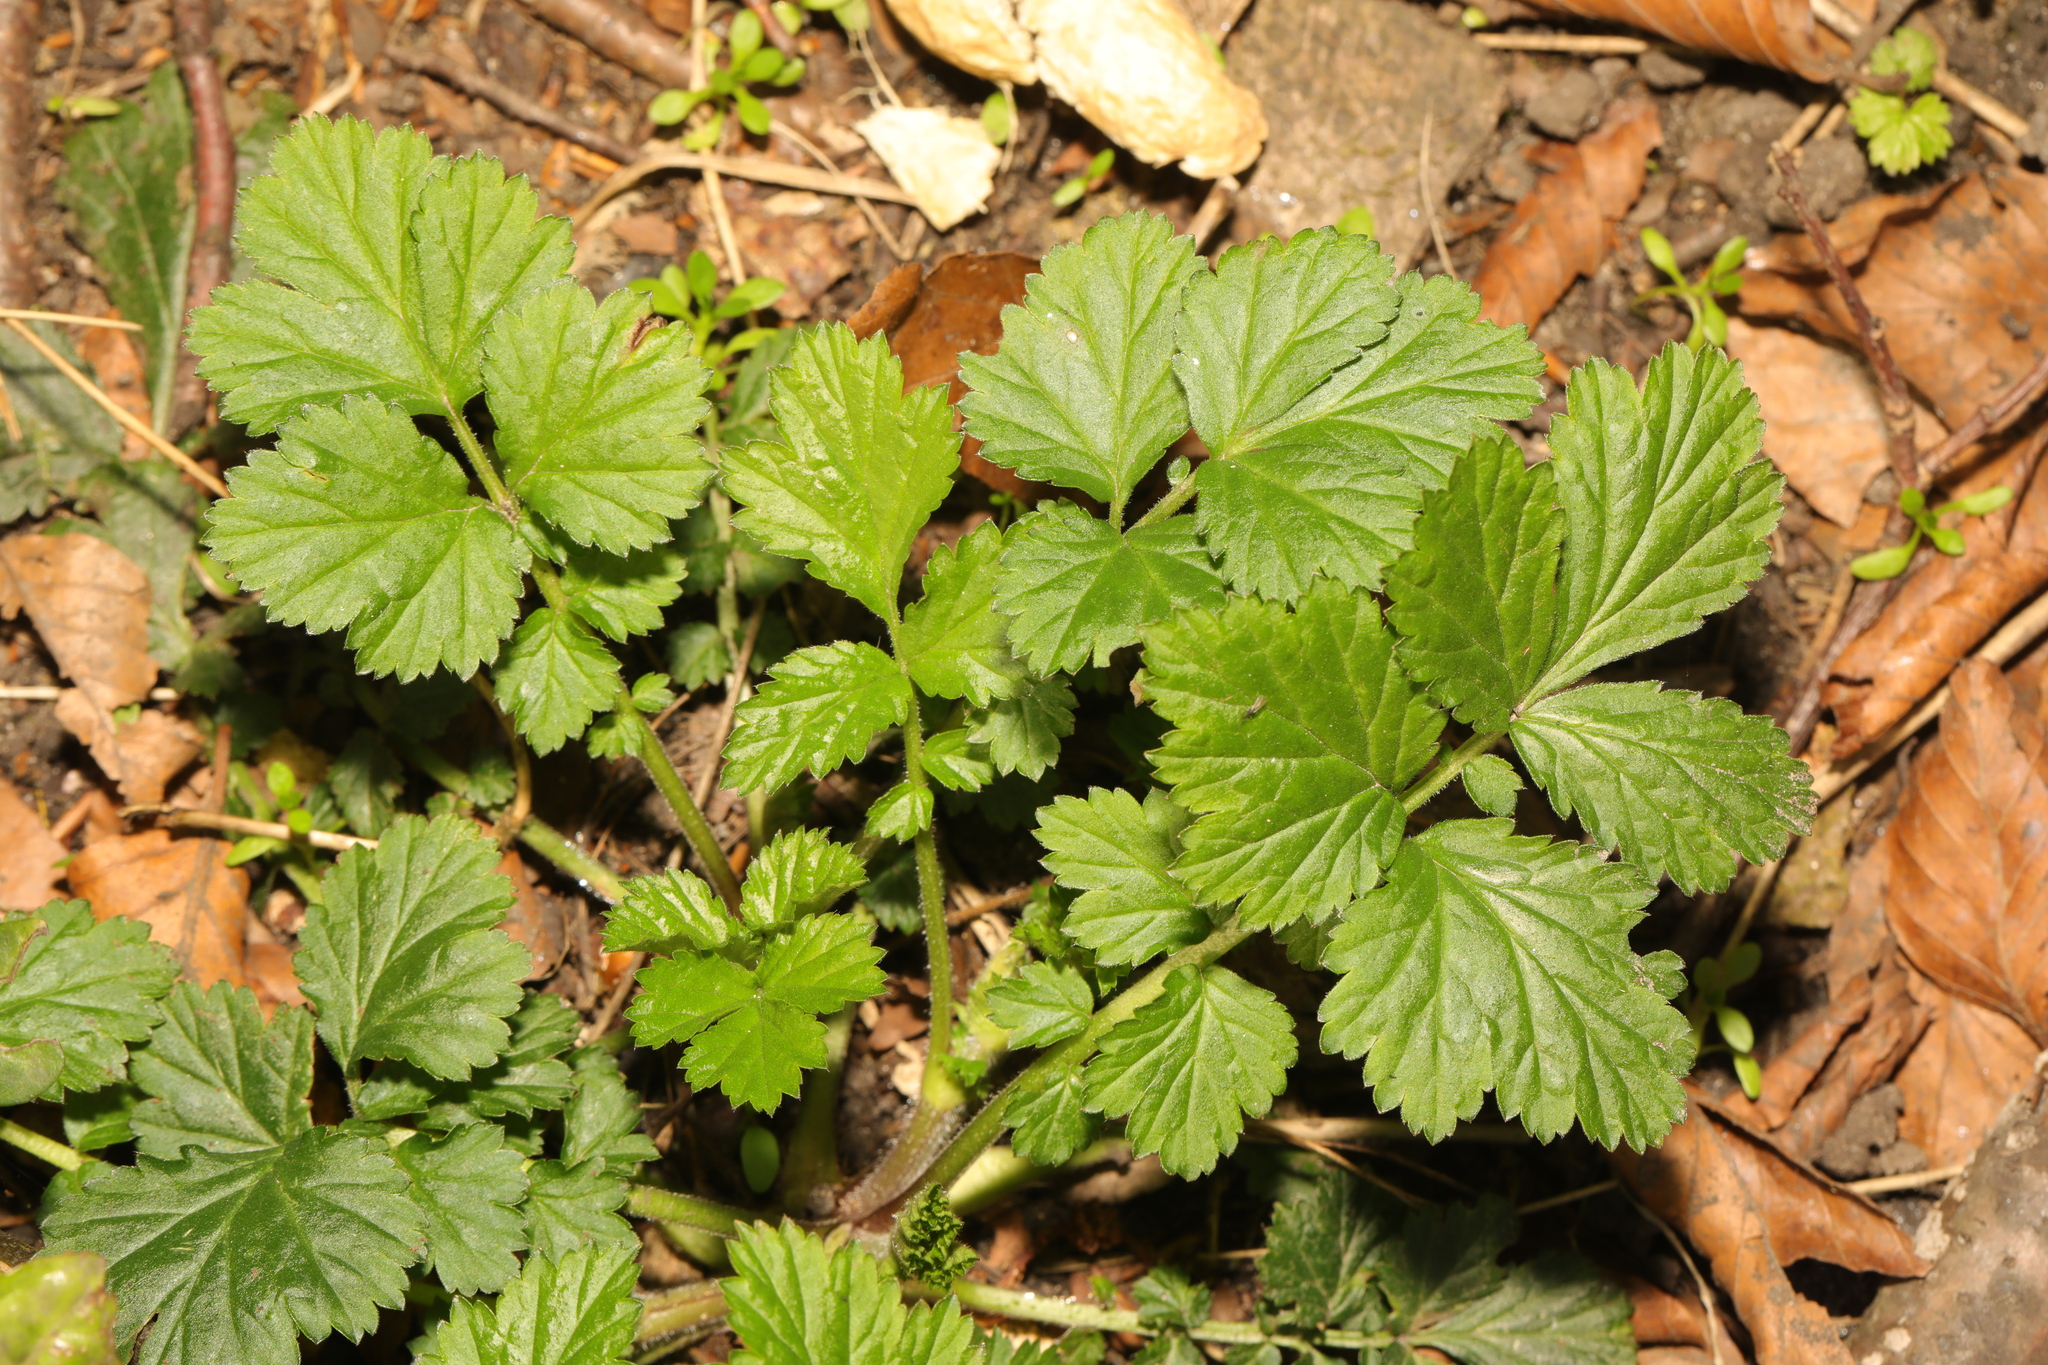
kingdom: Plantae
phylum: Tracheophyta
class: Magnoliopsida
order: Rosales
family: Rosaceae
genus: Geum
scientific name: Geum urbanum
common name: Wood avens
